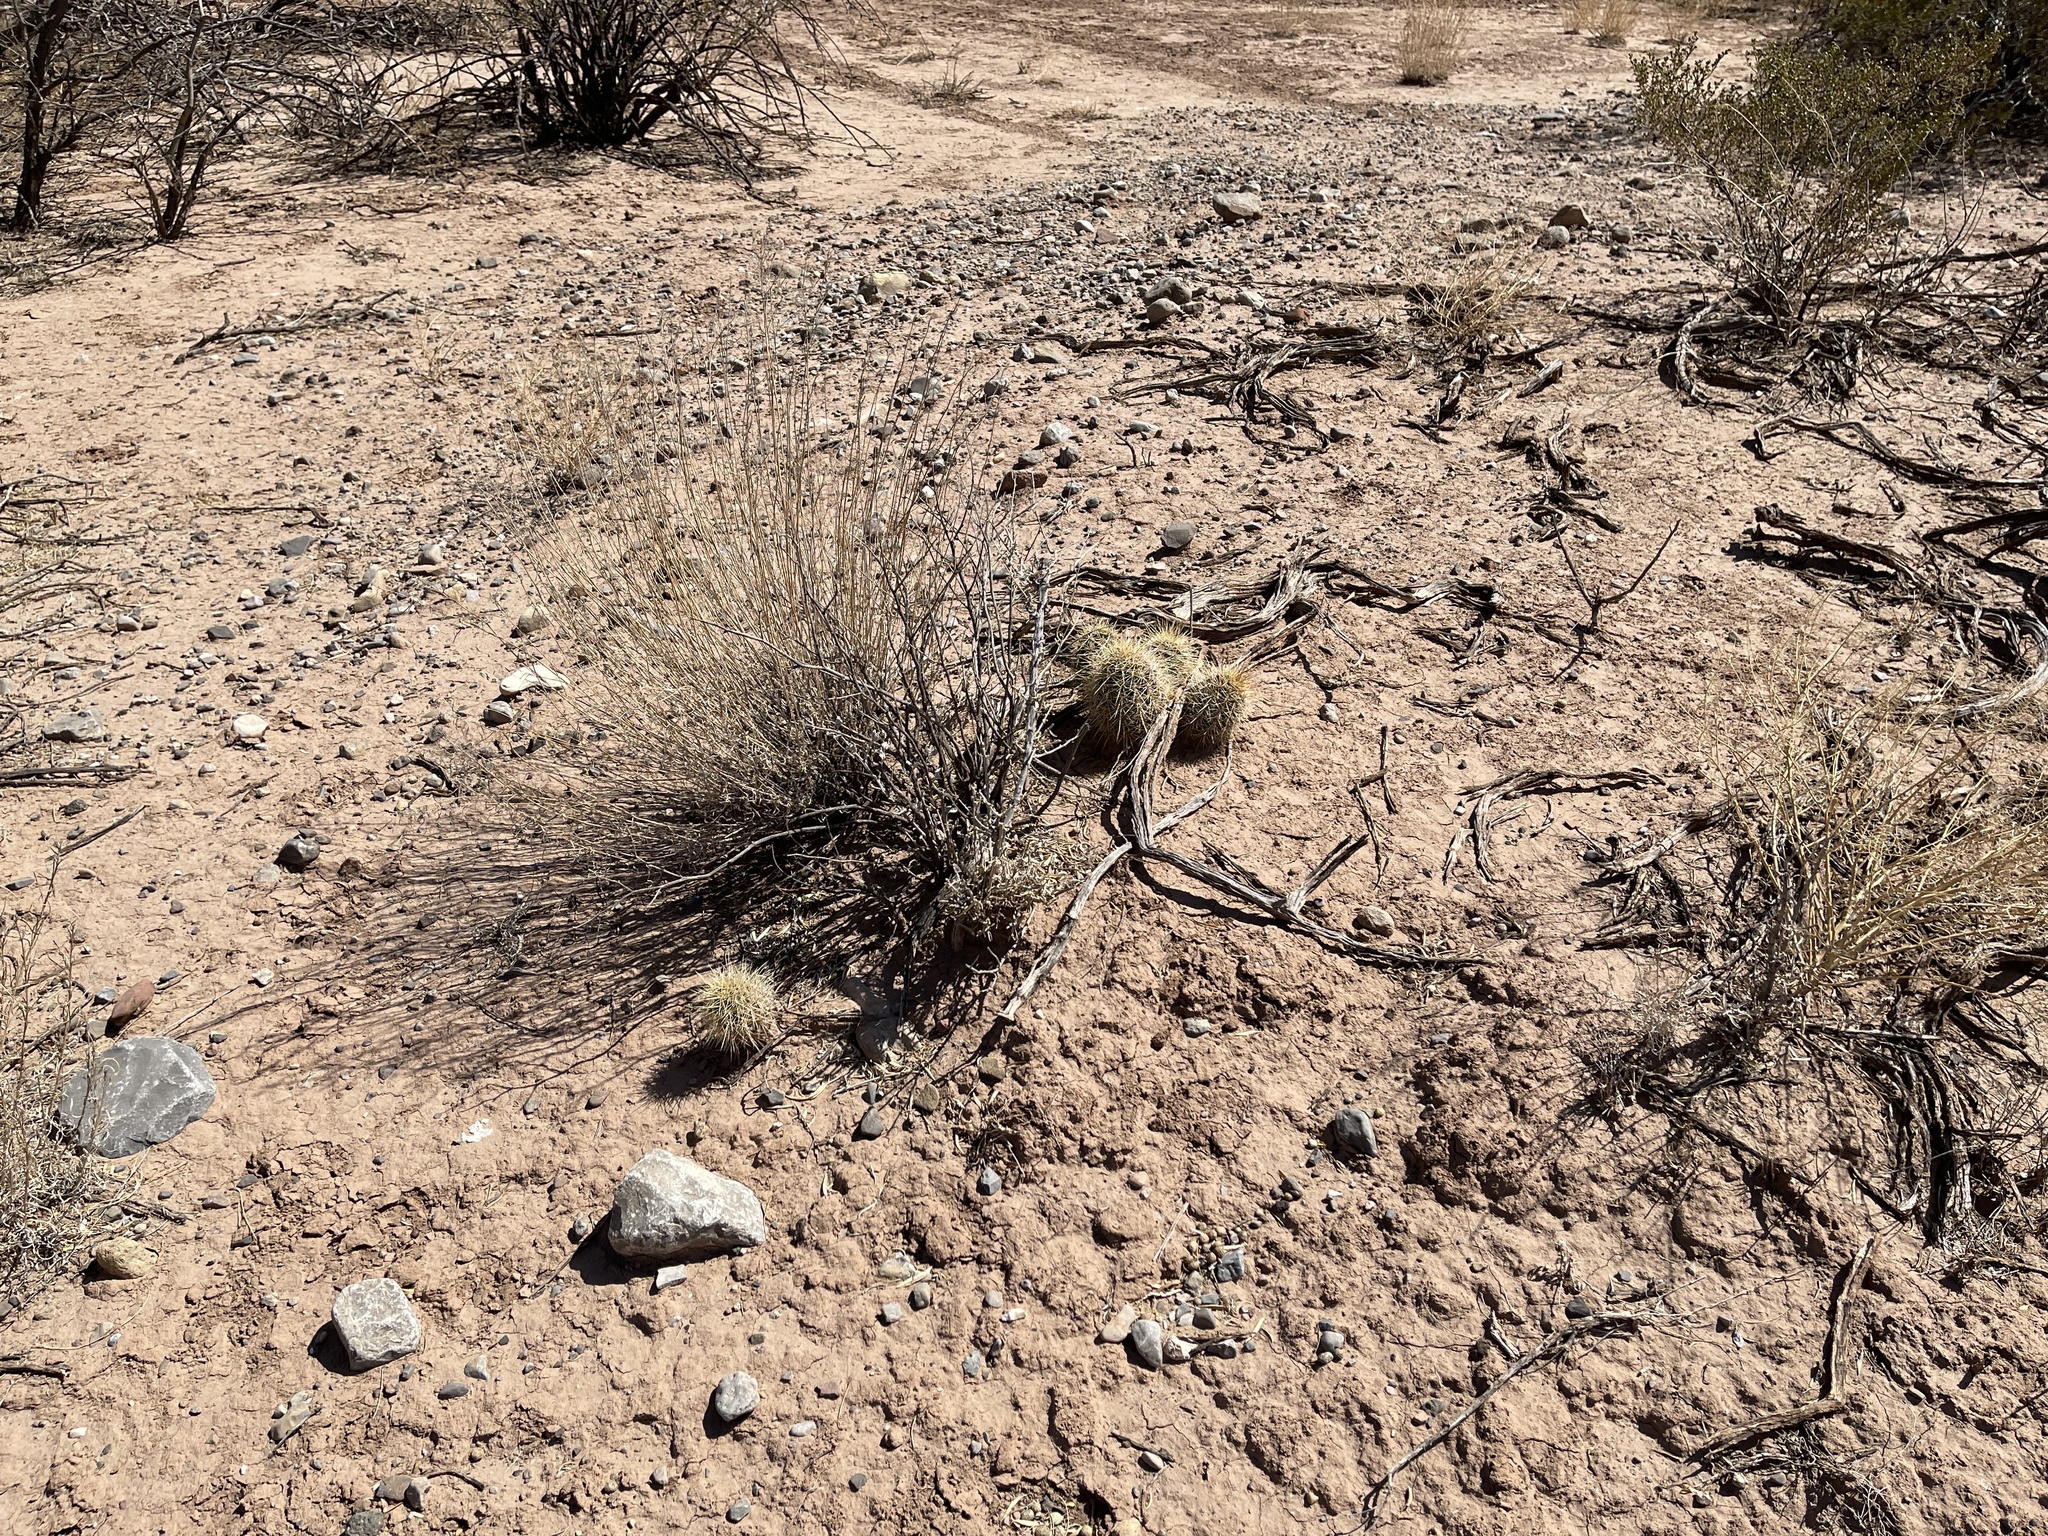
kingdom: Plantae
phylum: Tracheophyta
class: Magnoliopsida
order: Caryophyllales
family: Cactaceae
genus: Echinocereus
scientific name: Echinocereus coccineus
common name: Scarlet hedgehog cactus
